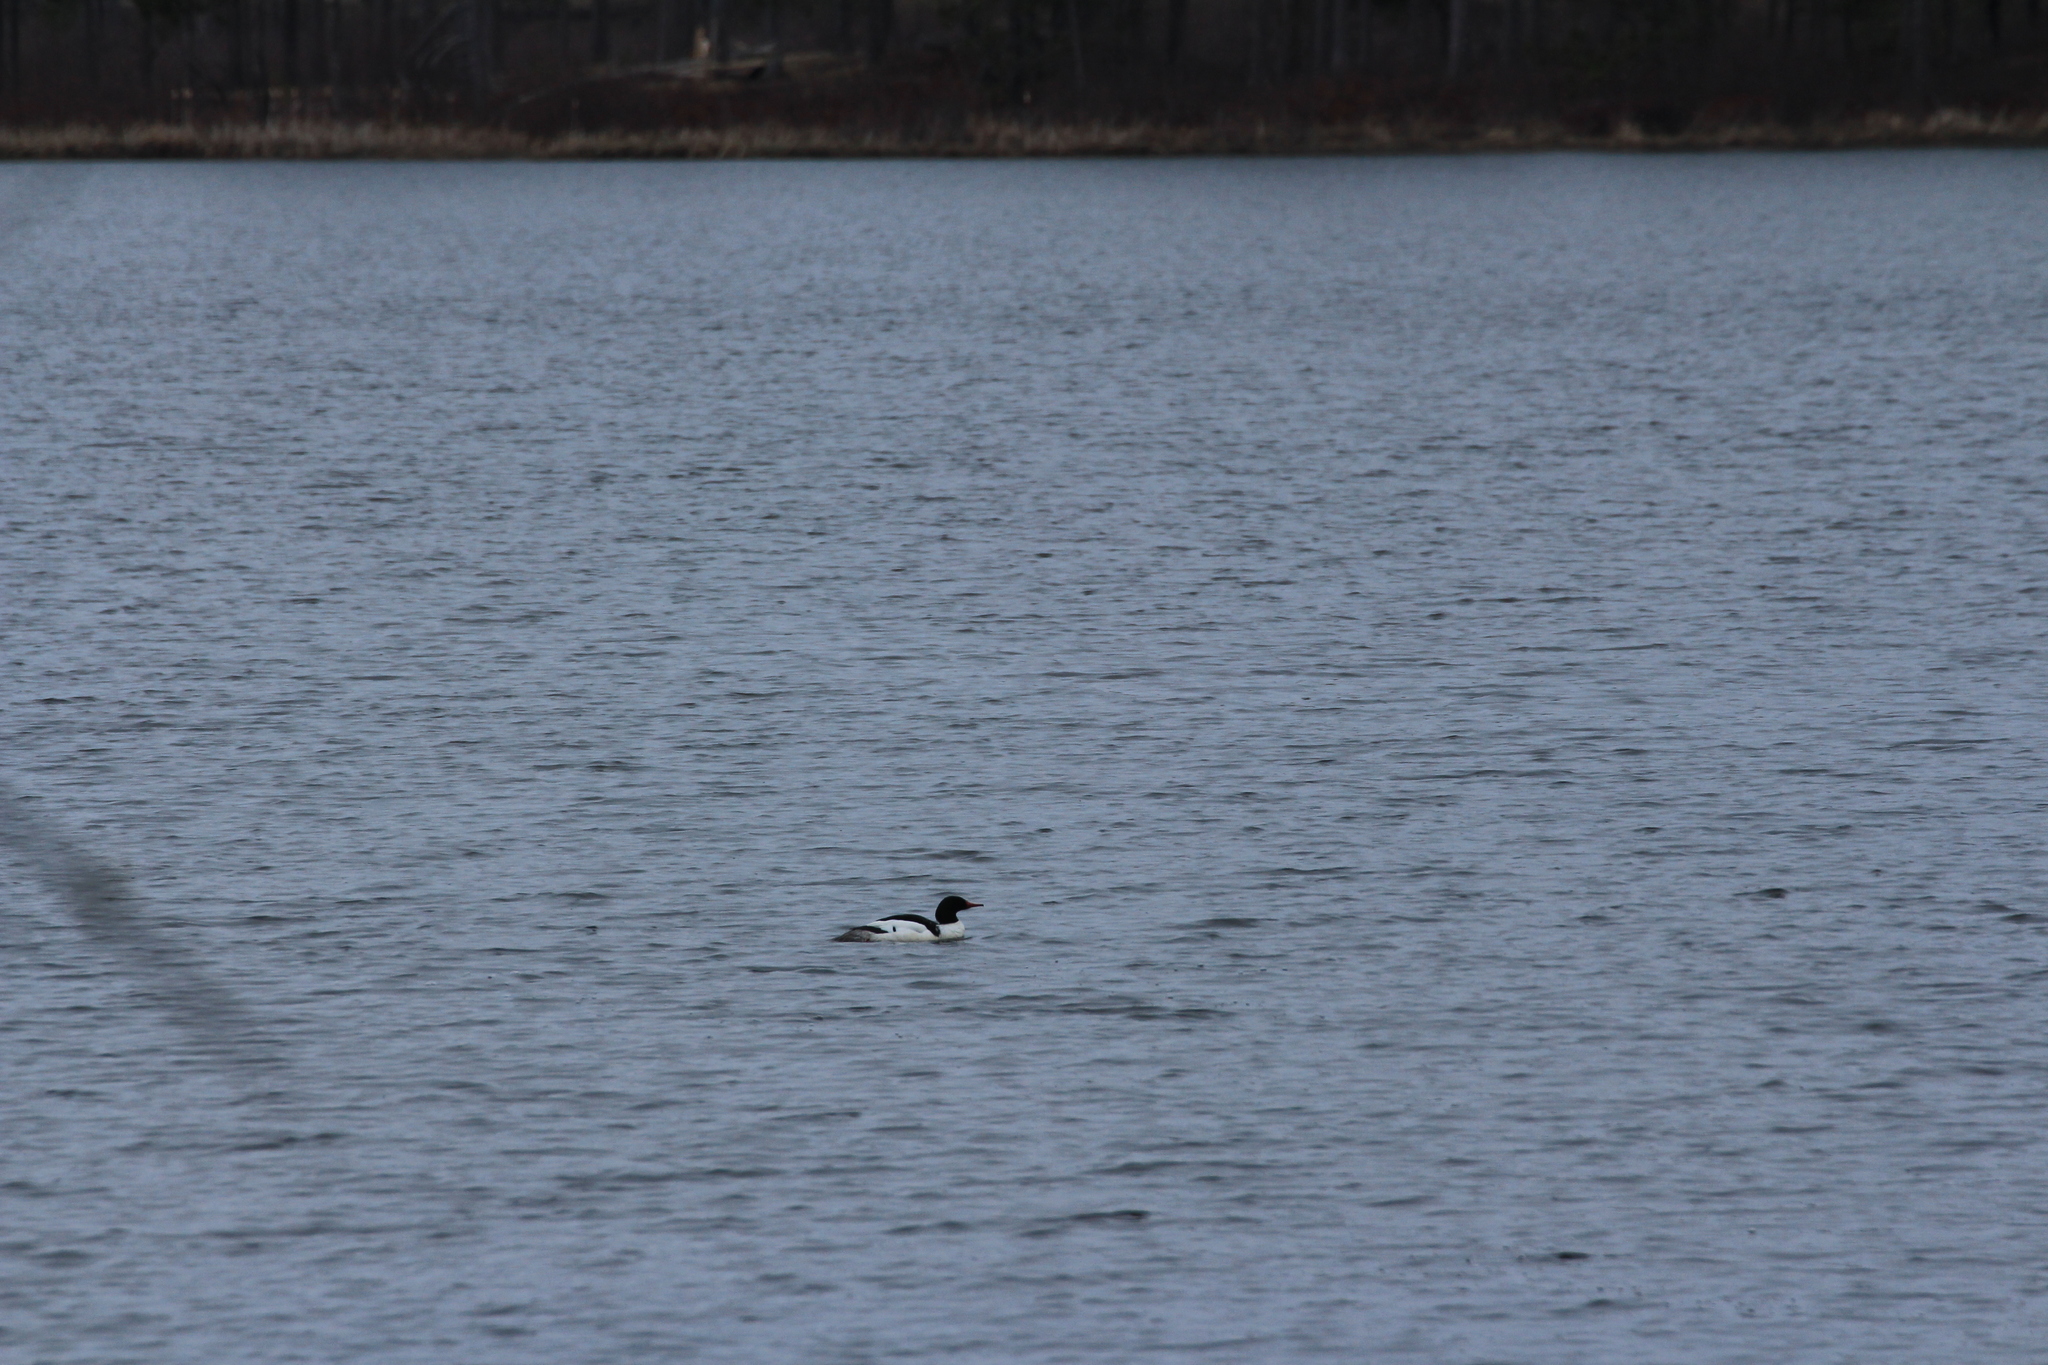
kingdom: Animalia
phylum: Chordata
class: Aves
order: Anseriformes
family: Anatidae
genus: Mergus
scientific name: Mergus merganser
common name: Common merganser
